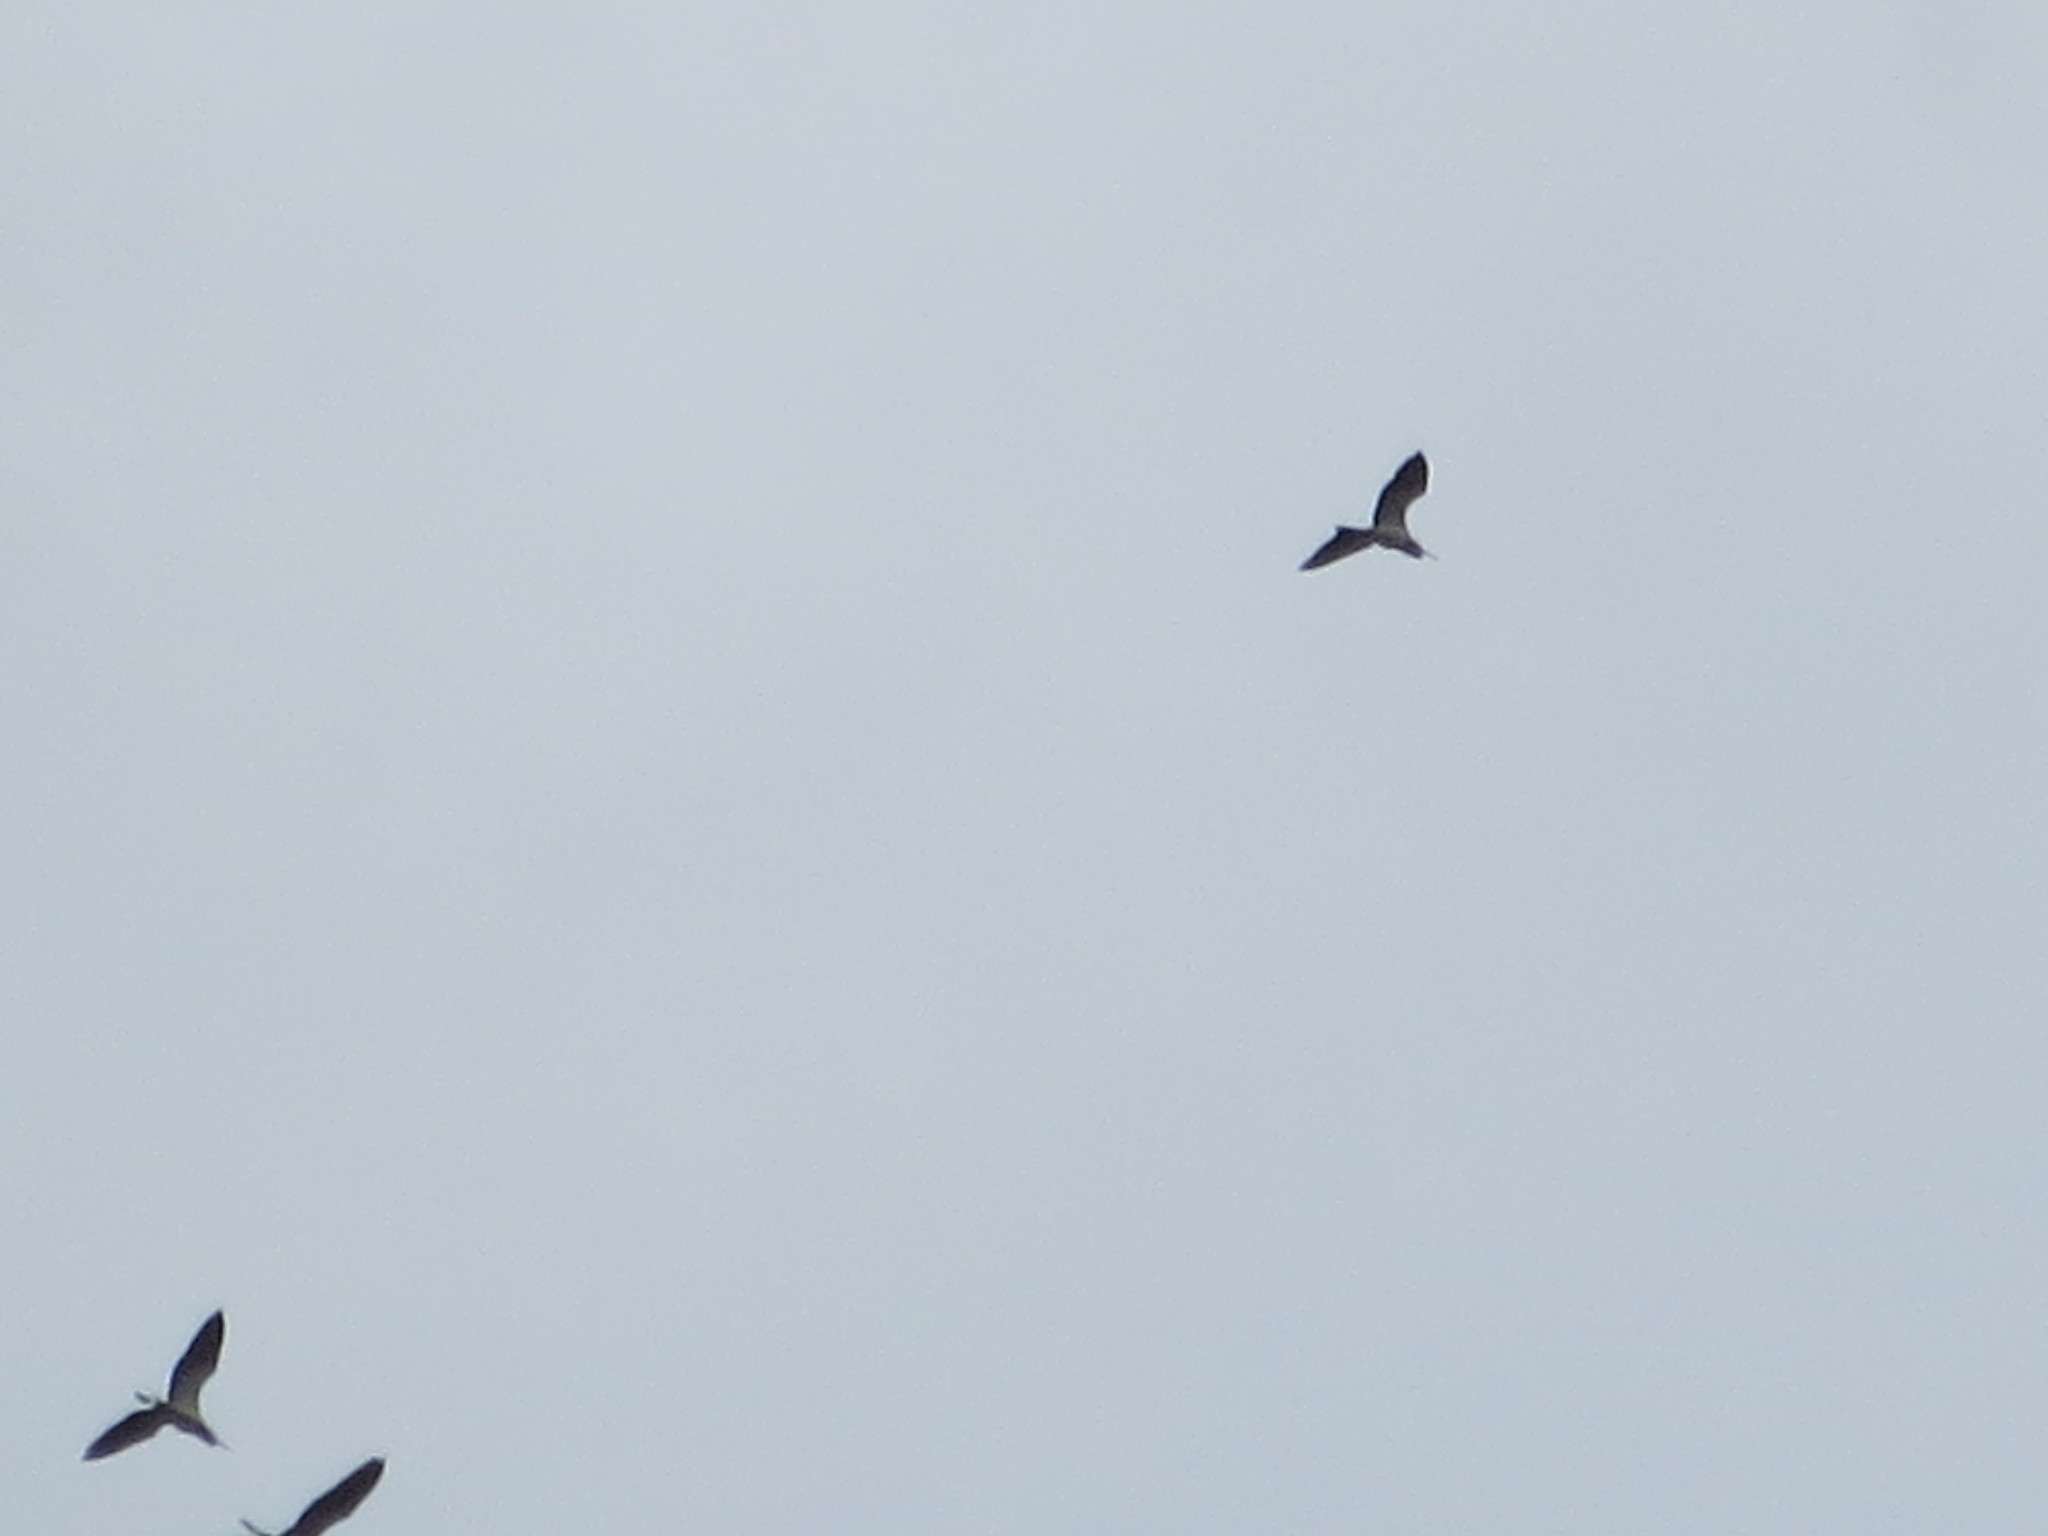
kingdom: Animalia
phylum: Chordata
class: Aves
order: Pelecaniformes
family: Ardeidae
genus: Egretta
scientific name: Egretta tricolor
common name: Tricolored heron
